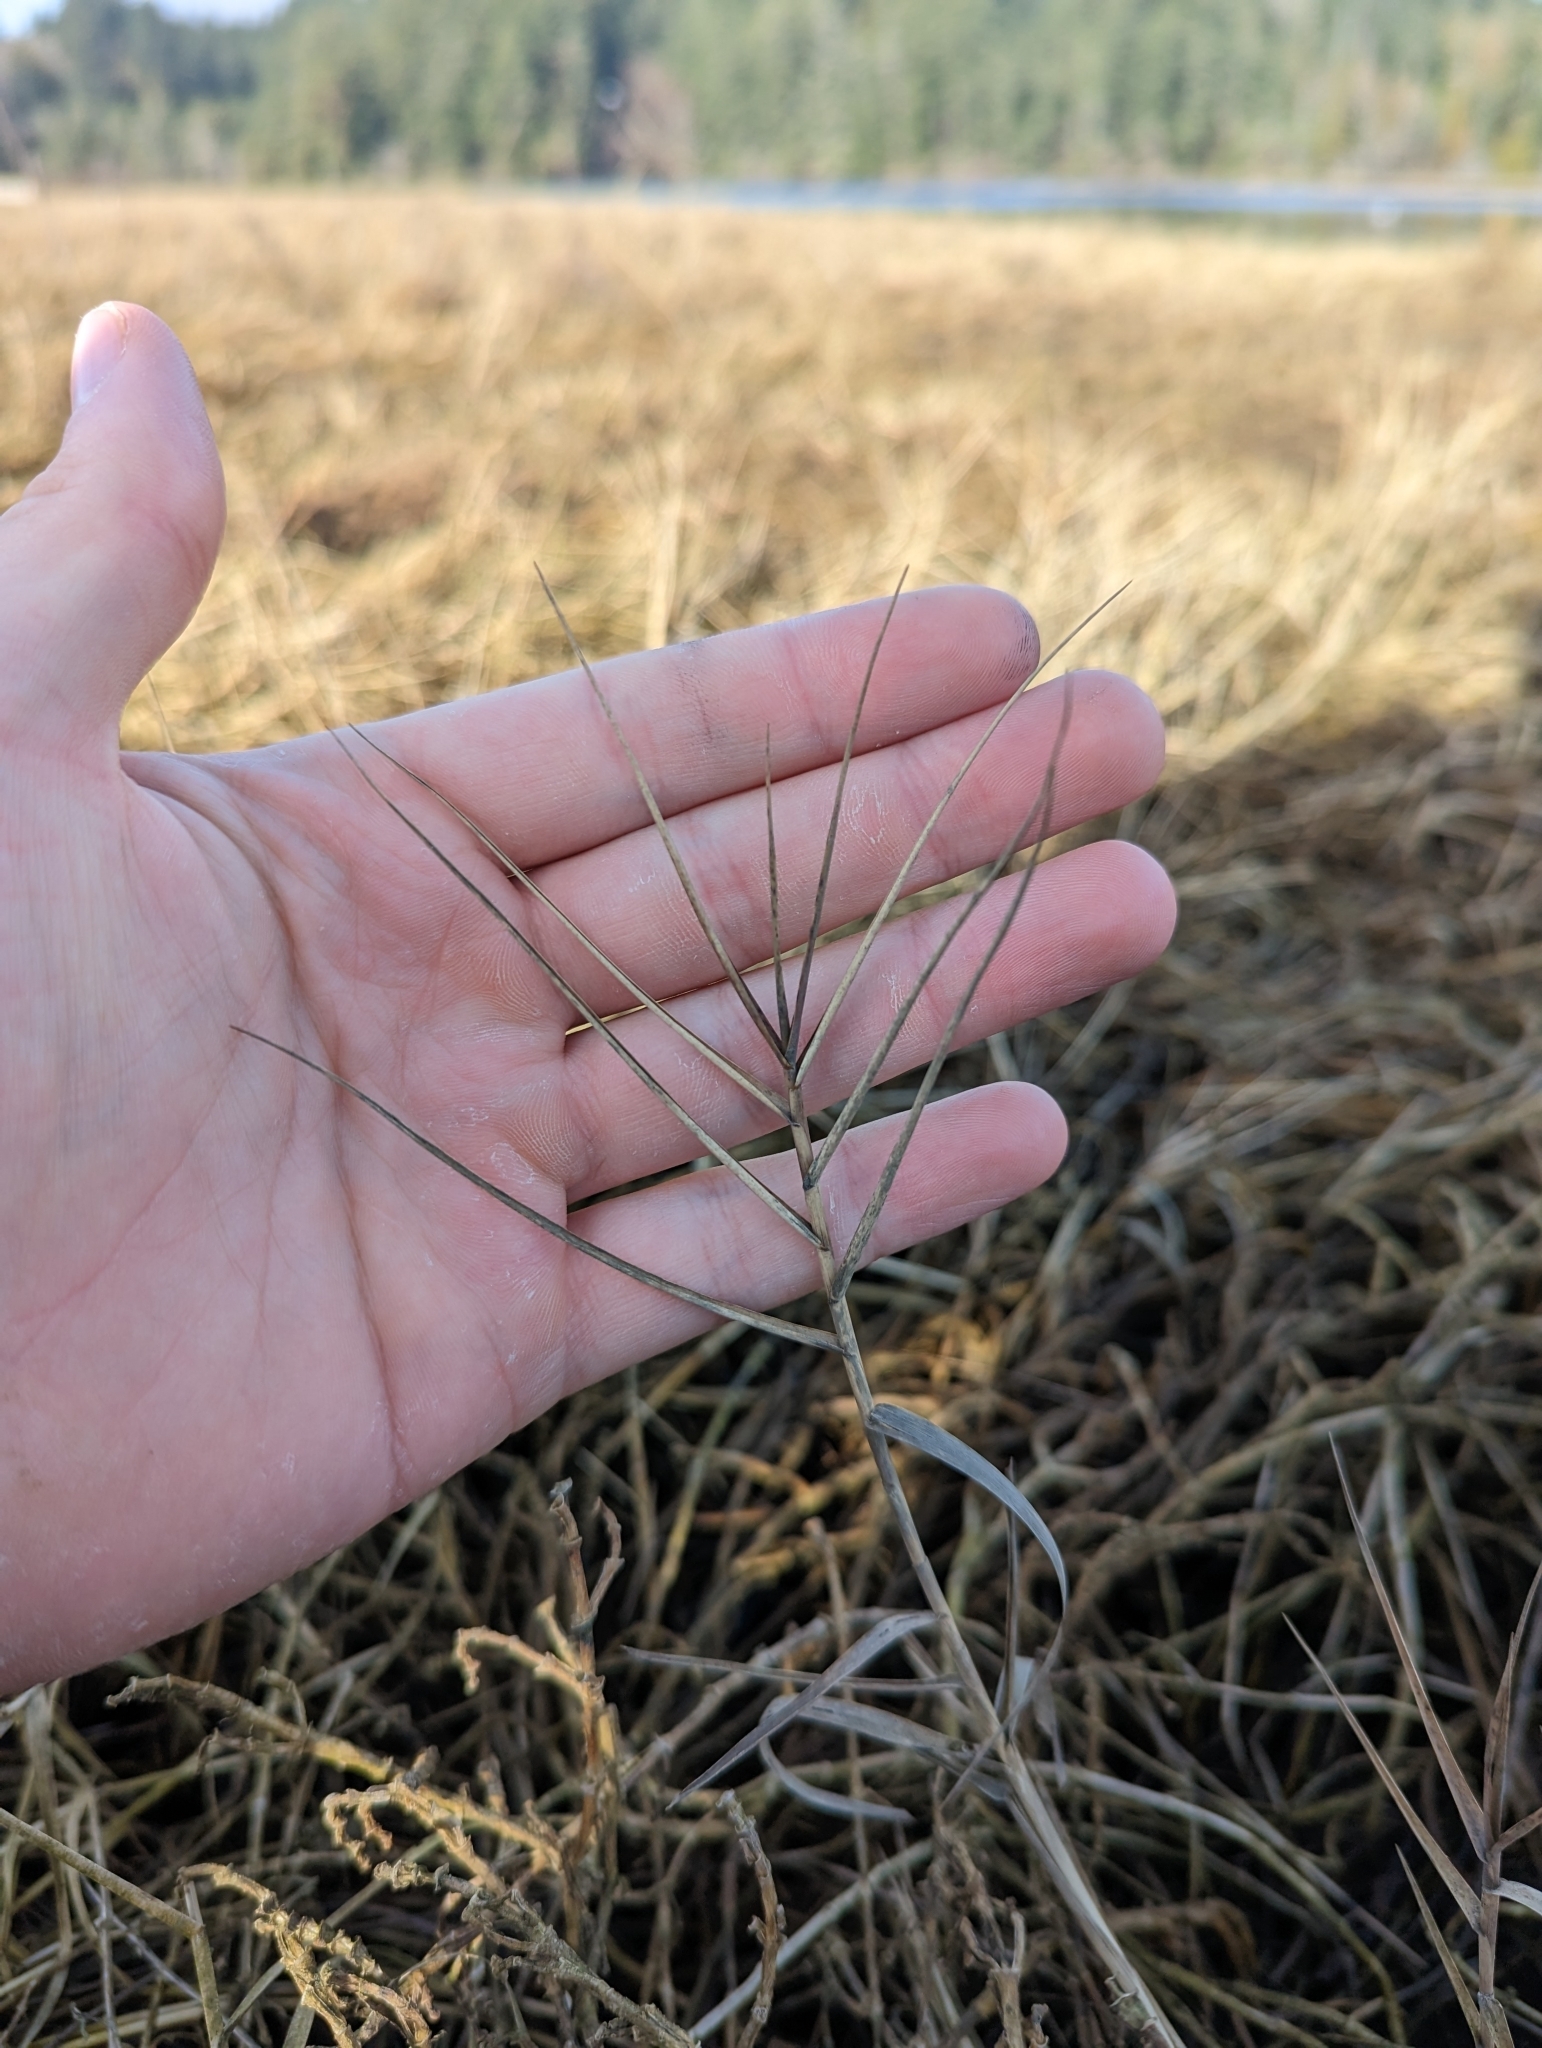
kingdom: Plantae
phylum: Tracheophyta
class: Liliopsida
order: Poales
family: Poaceae
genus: Distichlis
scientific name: Distichlis spicata
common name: Saltgrass
